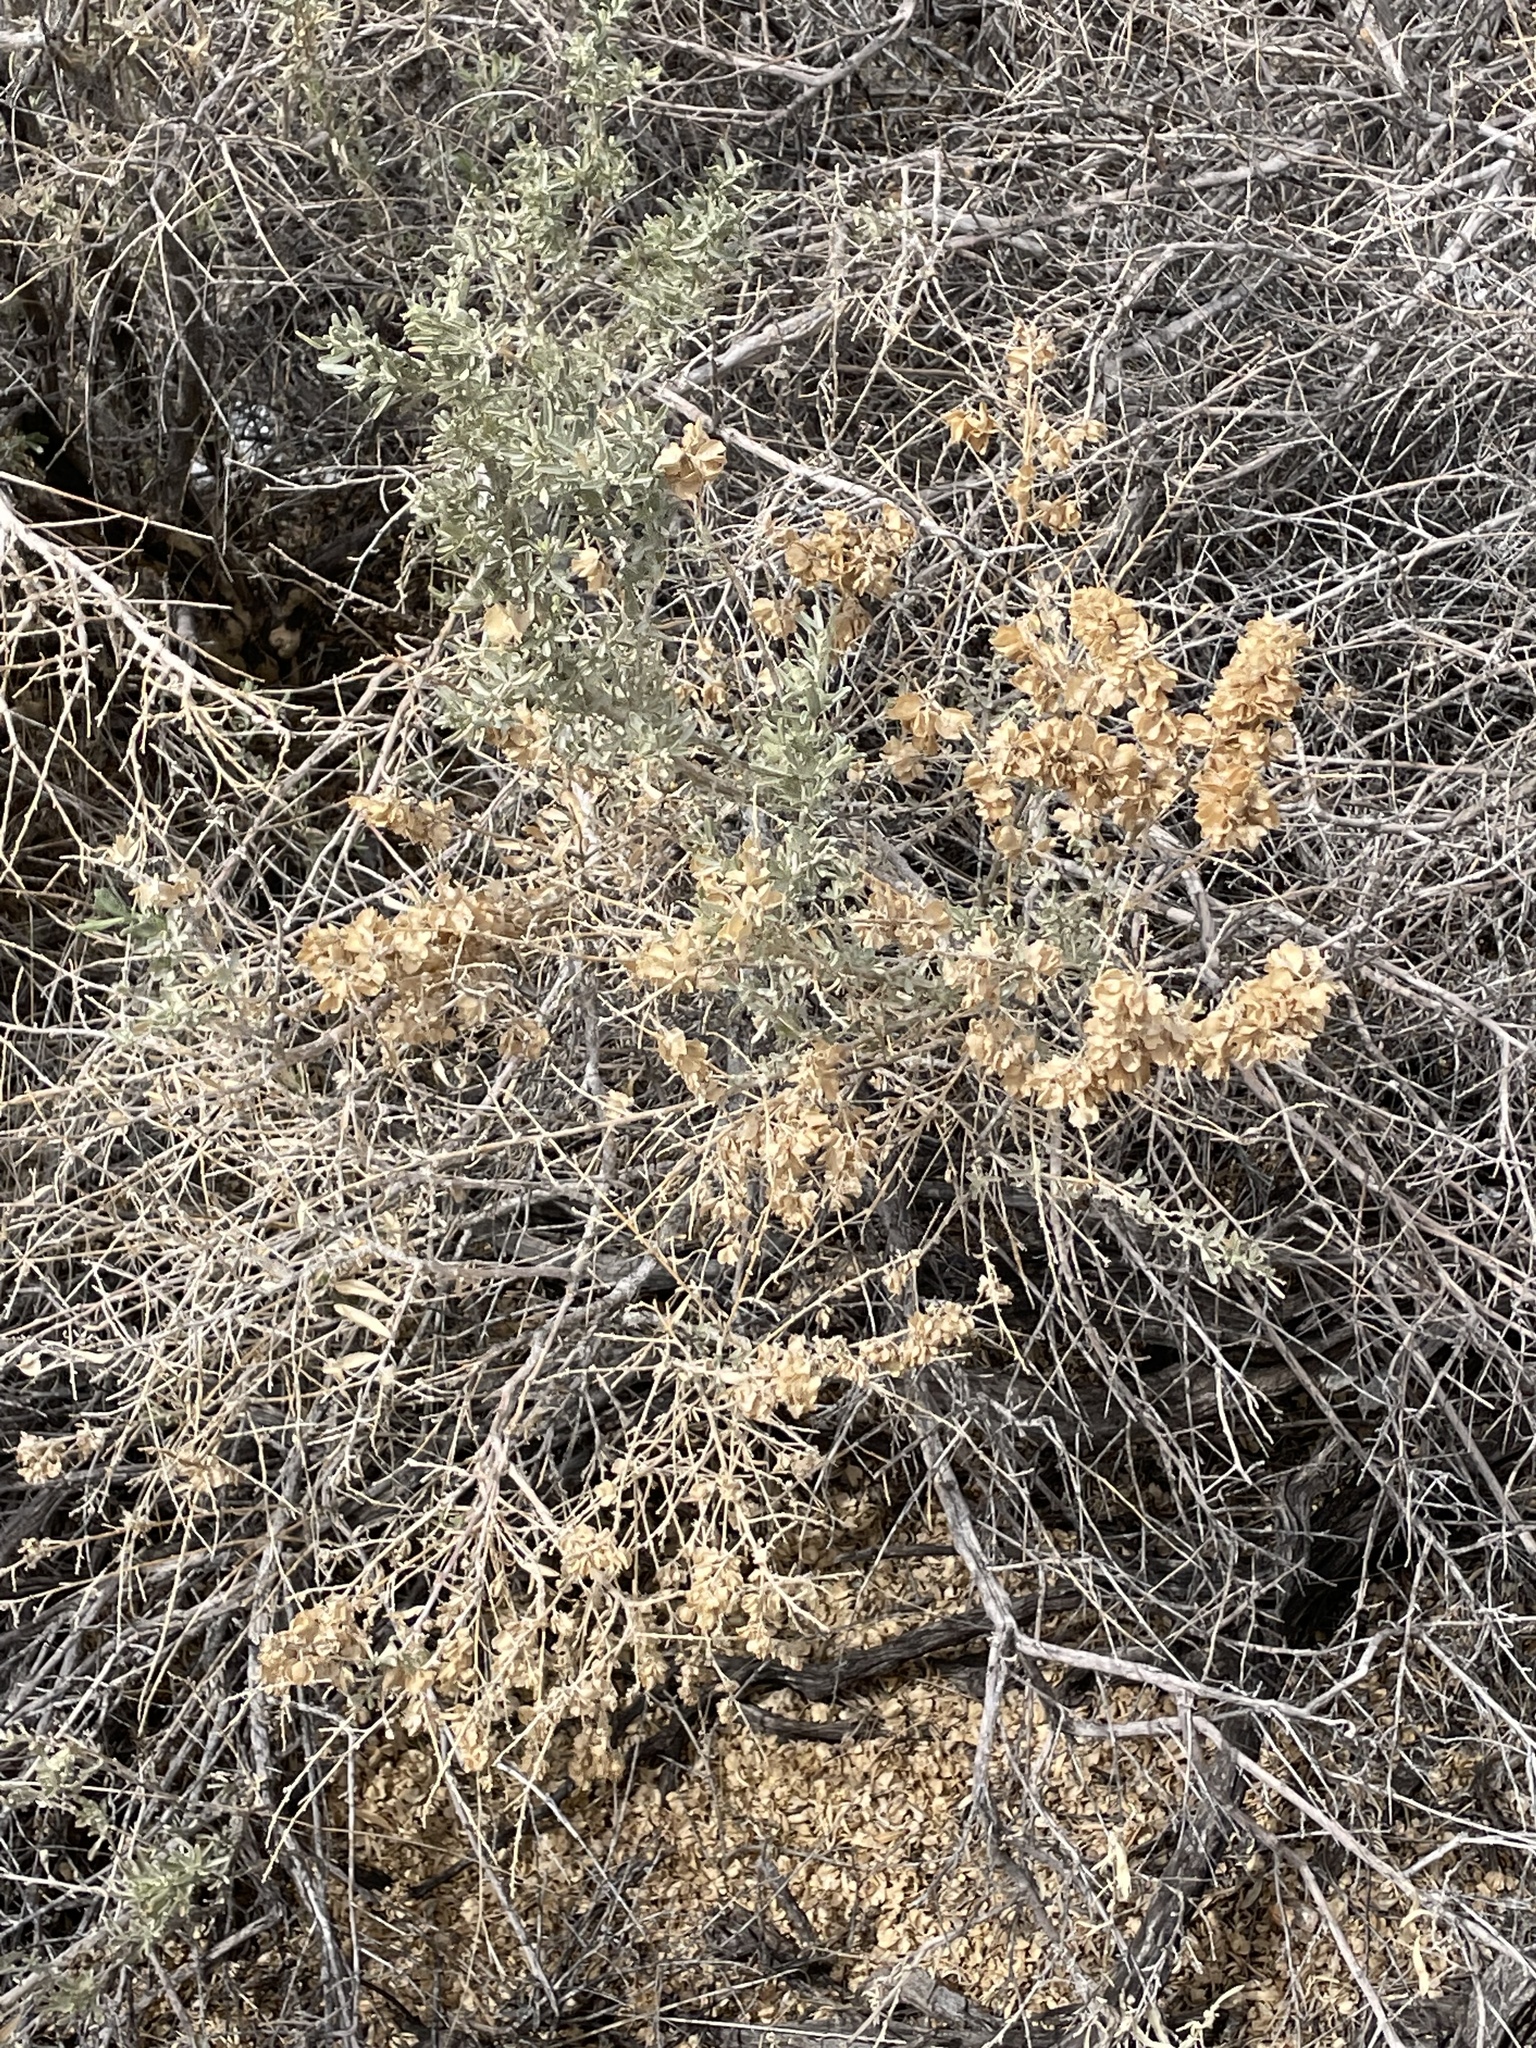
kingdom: Plantae
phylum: Tracheophyta
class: Magnoliopsida
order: Caryophyllales
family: Amaranthaceae
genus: Atriplex
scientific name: Atriplex canescens
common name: Four-wing saltbush
